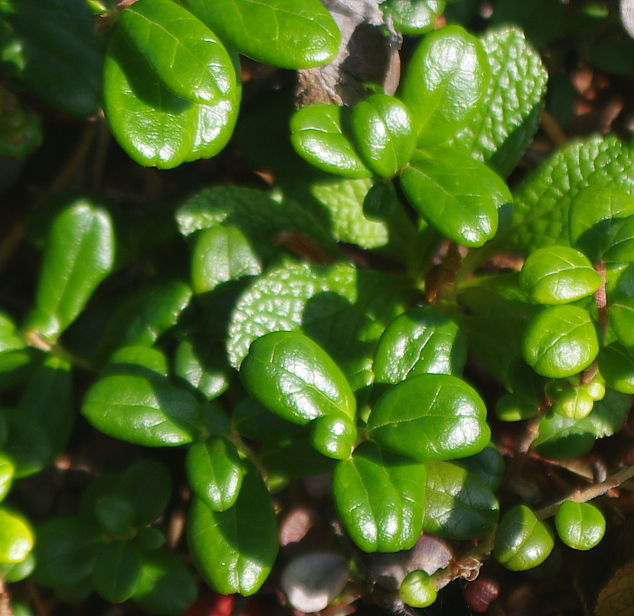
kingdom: Plantae
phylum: Tracheophyta
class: Magnoliopsida
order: Ericales
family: Ericaceae
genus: Vaccinium
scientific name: Vaccinium vitis-idaea
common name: Cowberry
